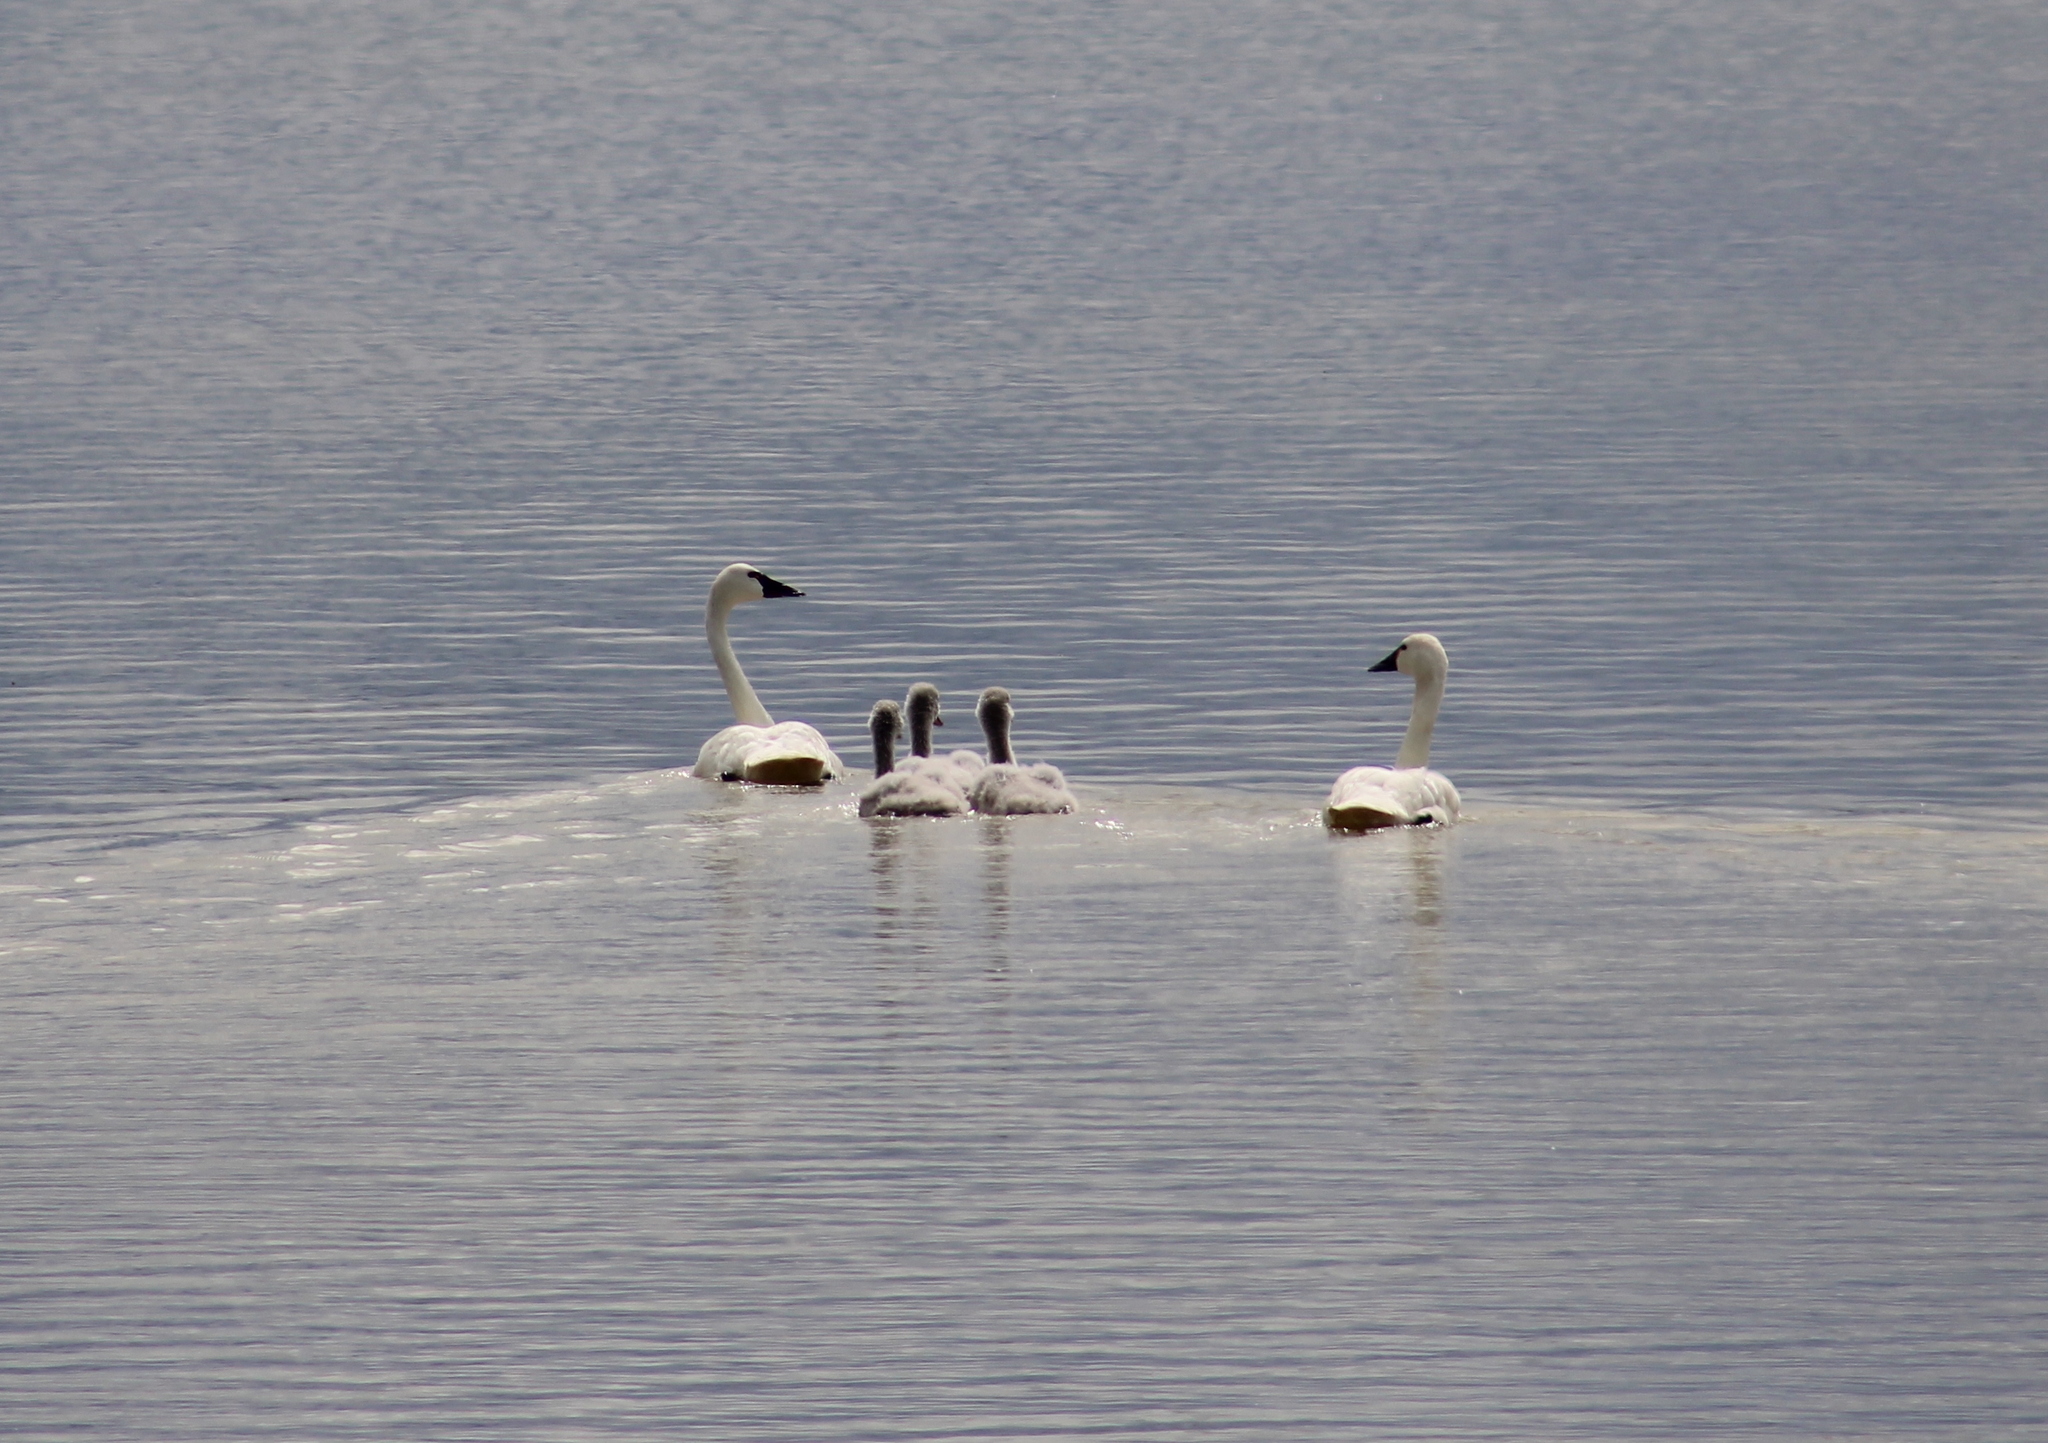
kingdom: Animalia
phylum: Chordata
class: Aves
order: Anseriformes
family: Anatidae
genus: Cygnus
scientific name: Cygnus columbianus
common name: Tundra swan
